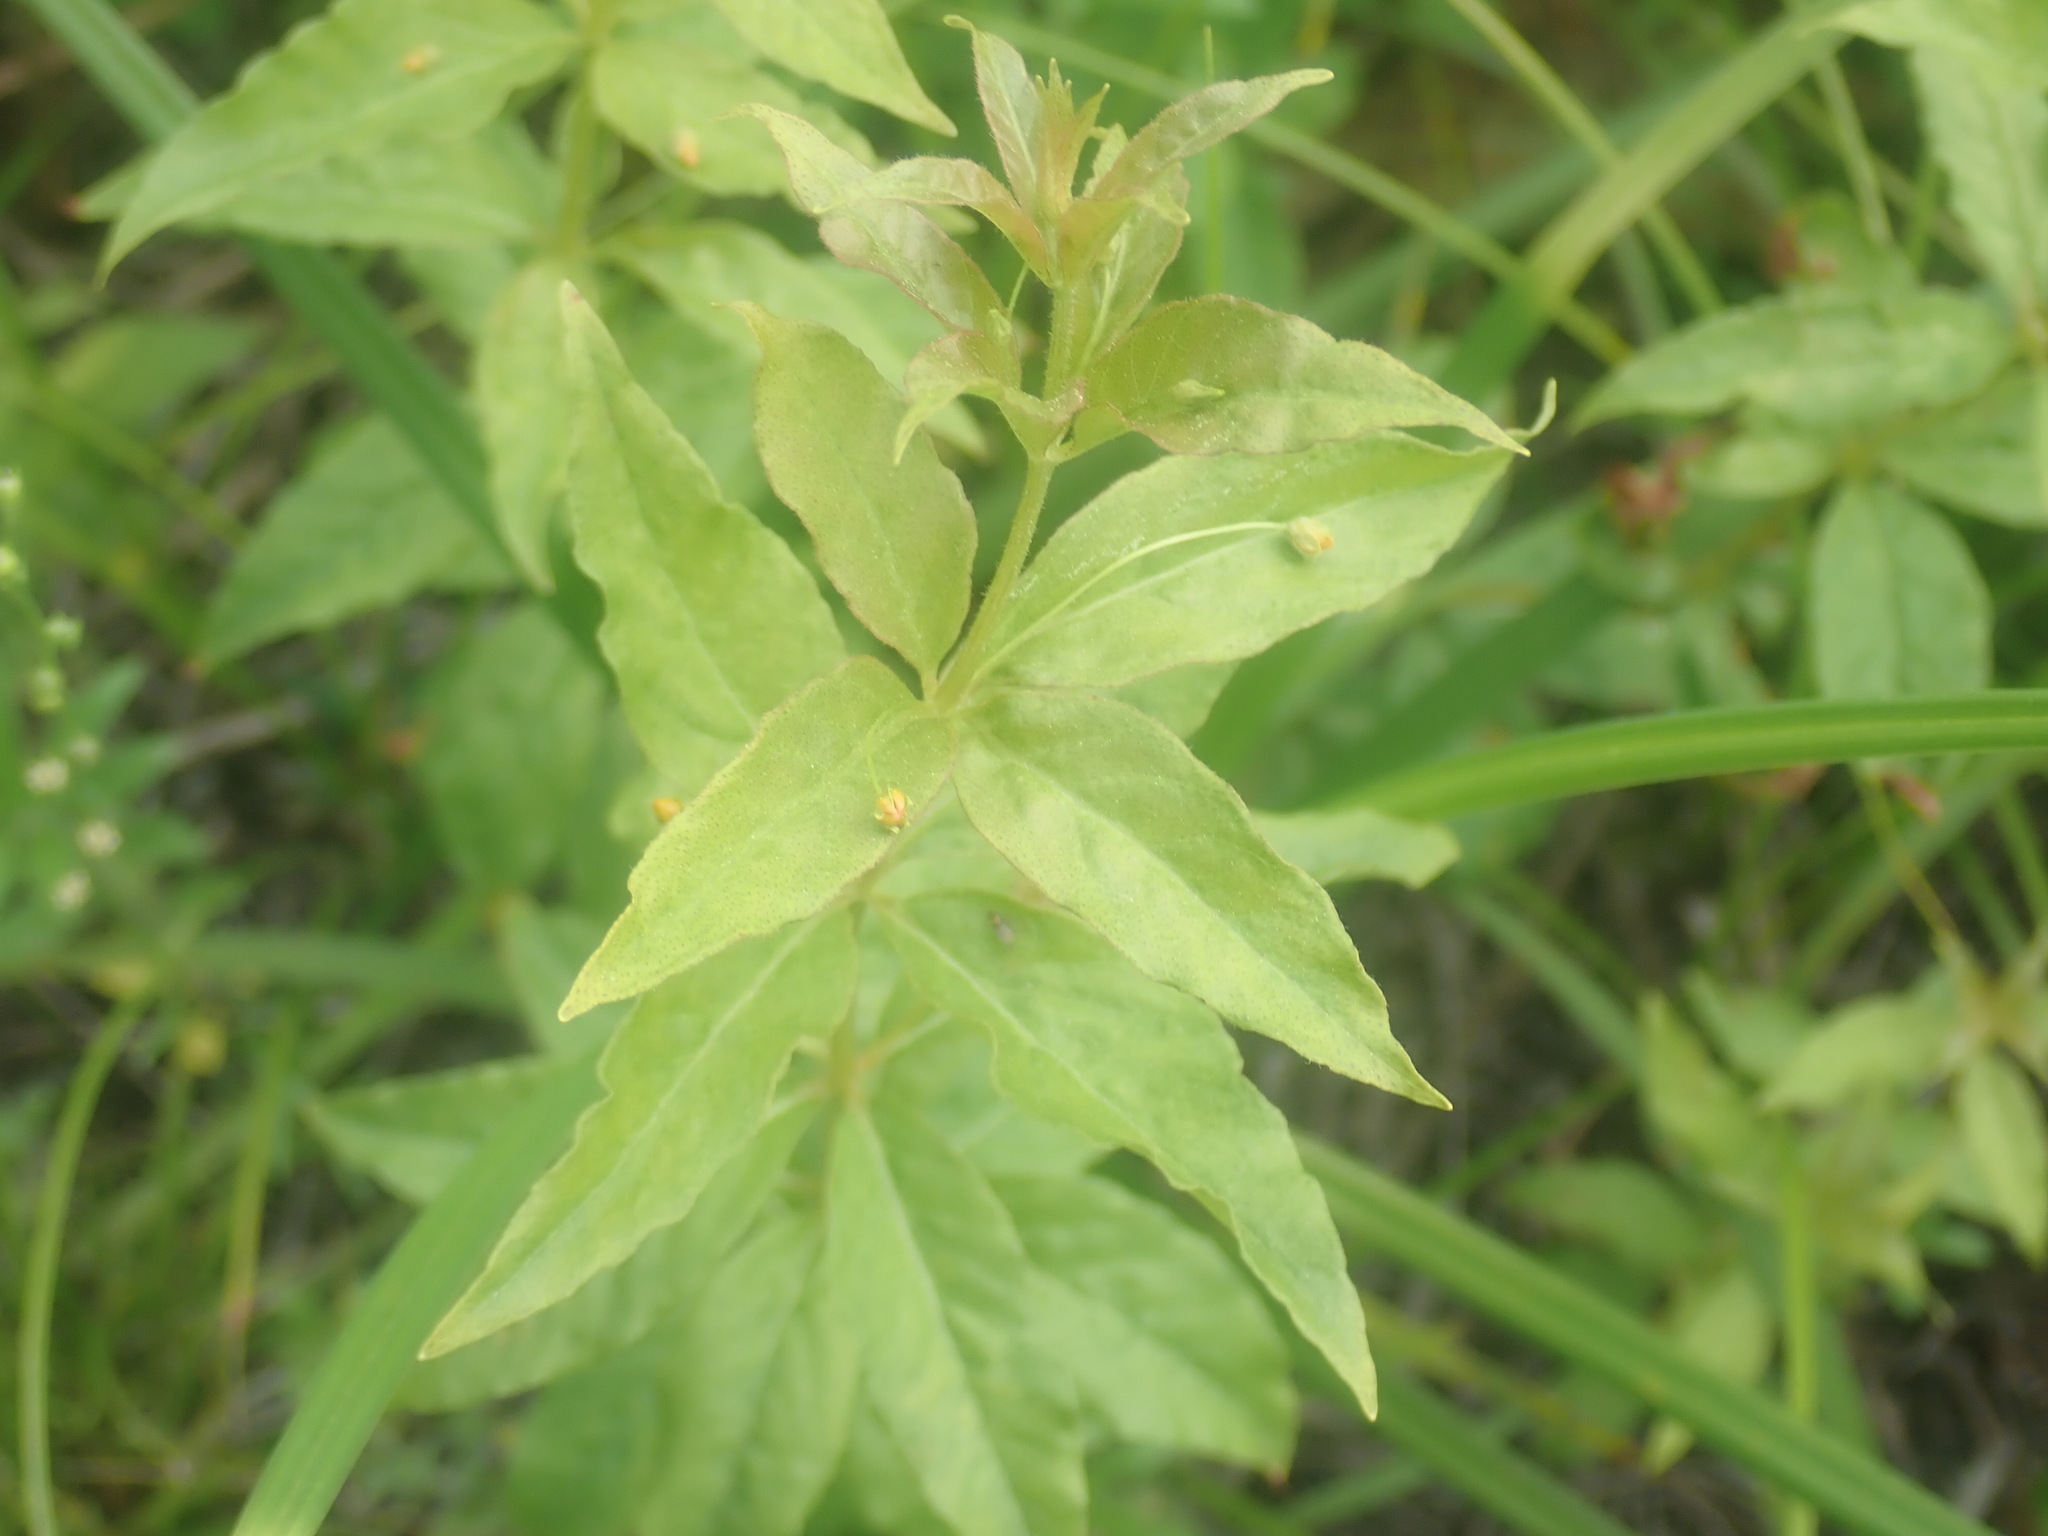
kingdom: Plantae
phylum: Tracheophyta
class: Magnoliopsida
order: Ericales
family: Primulaceae
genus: Lysimachia
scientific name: Lysimachia quadrifolia
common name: Whorled loosestrife
